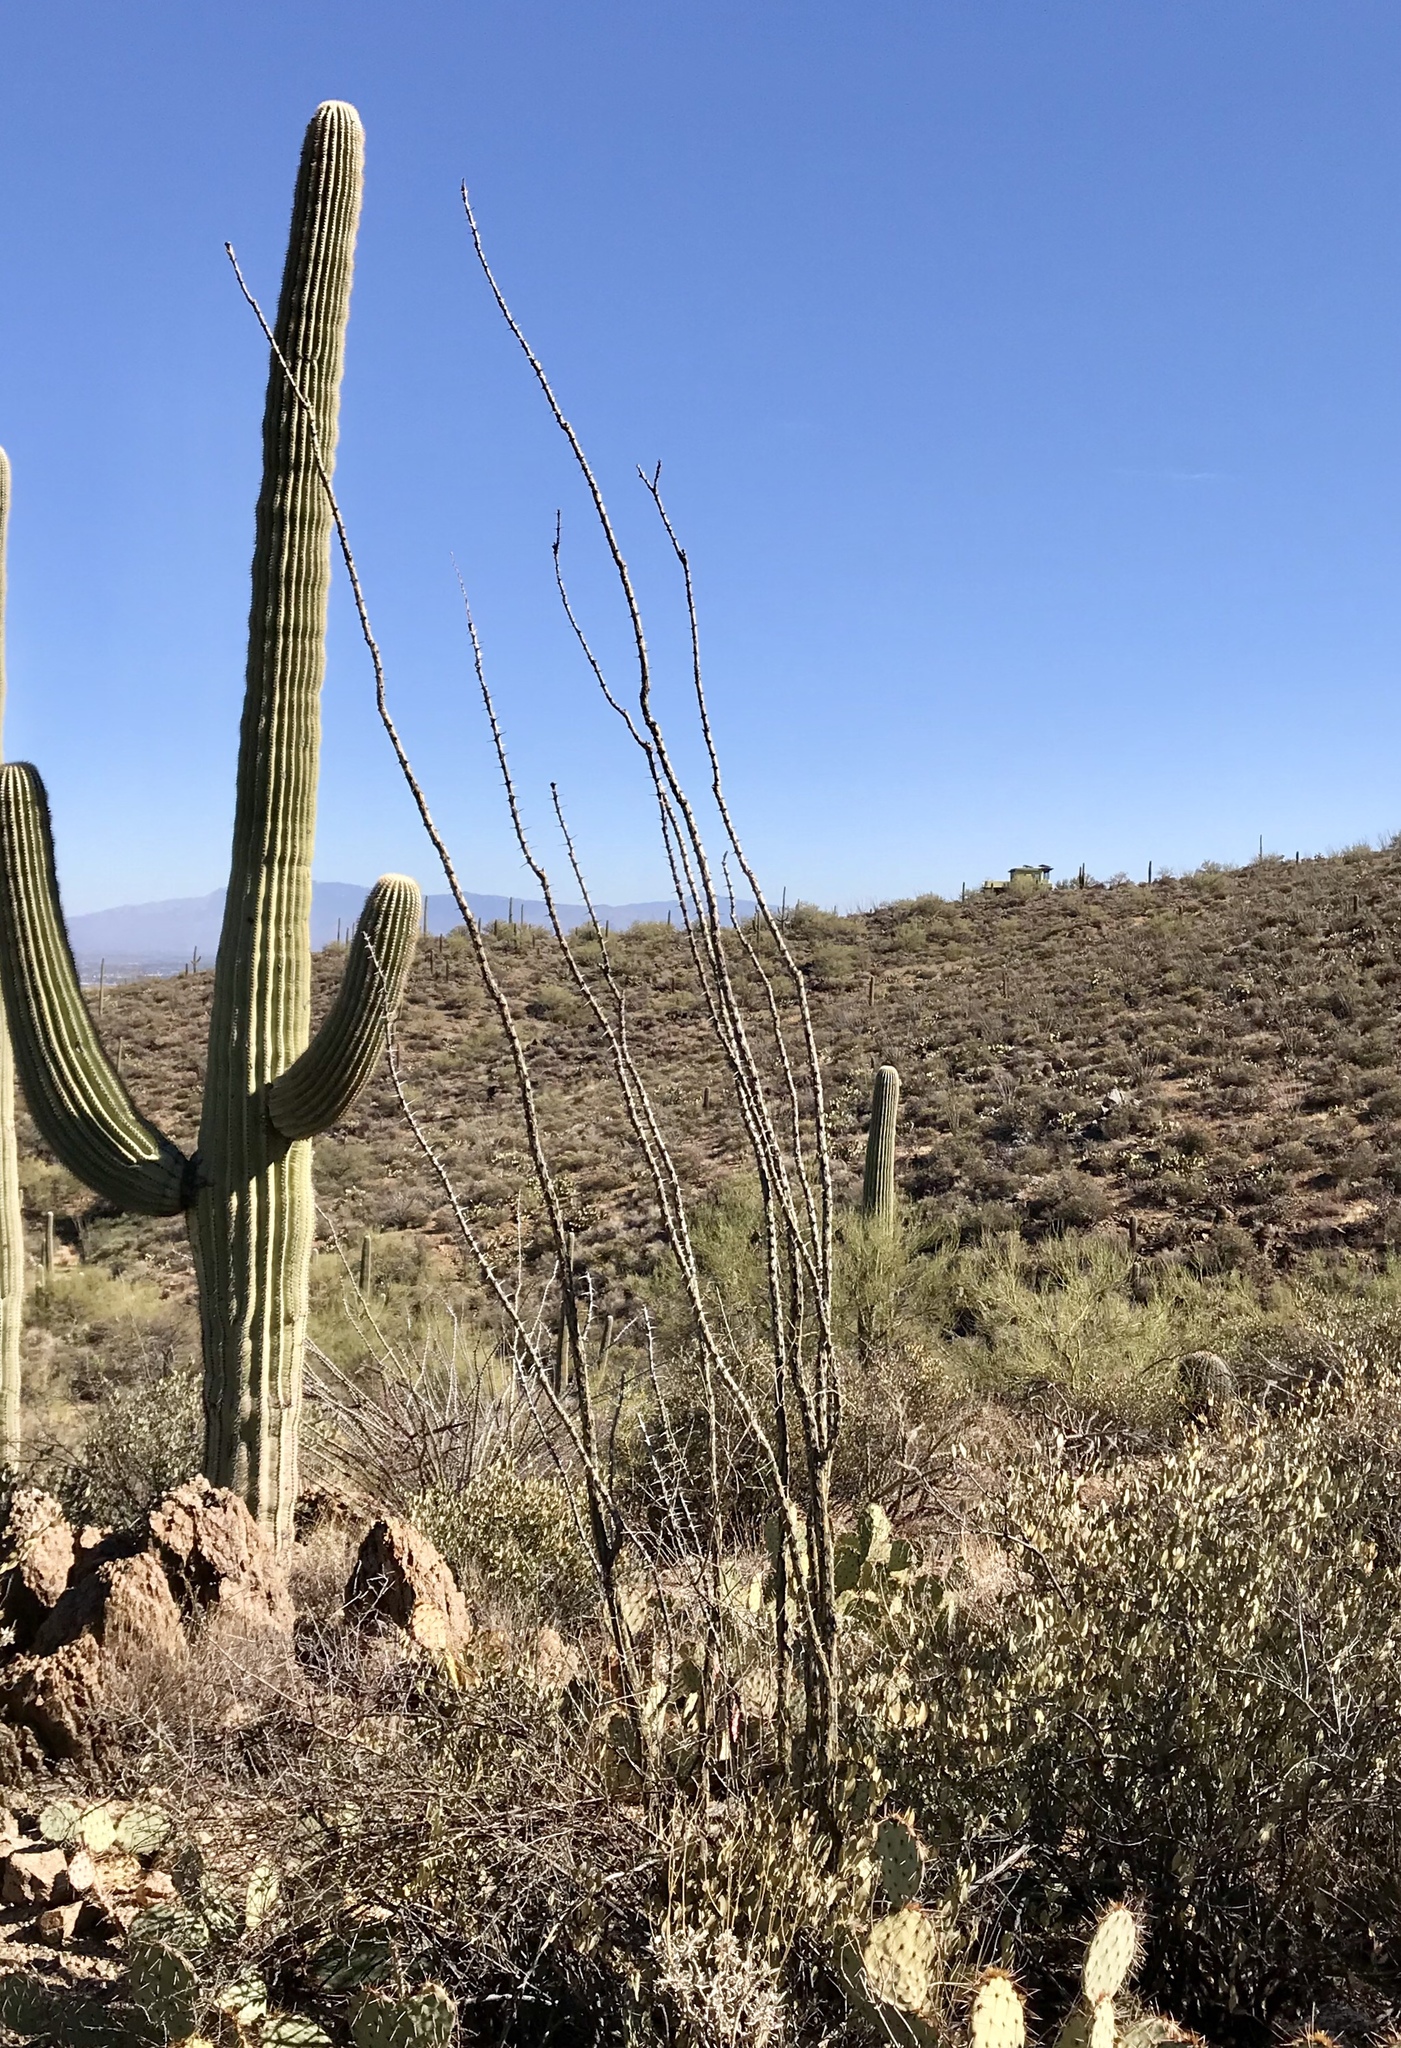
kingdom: Plantae
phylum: Tracheophyta
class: Magnoliopsida
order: Ericales
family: Fouquieriaceae
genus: Fouquieria
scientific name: Fouquieria splendens
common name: Vine-cactus
